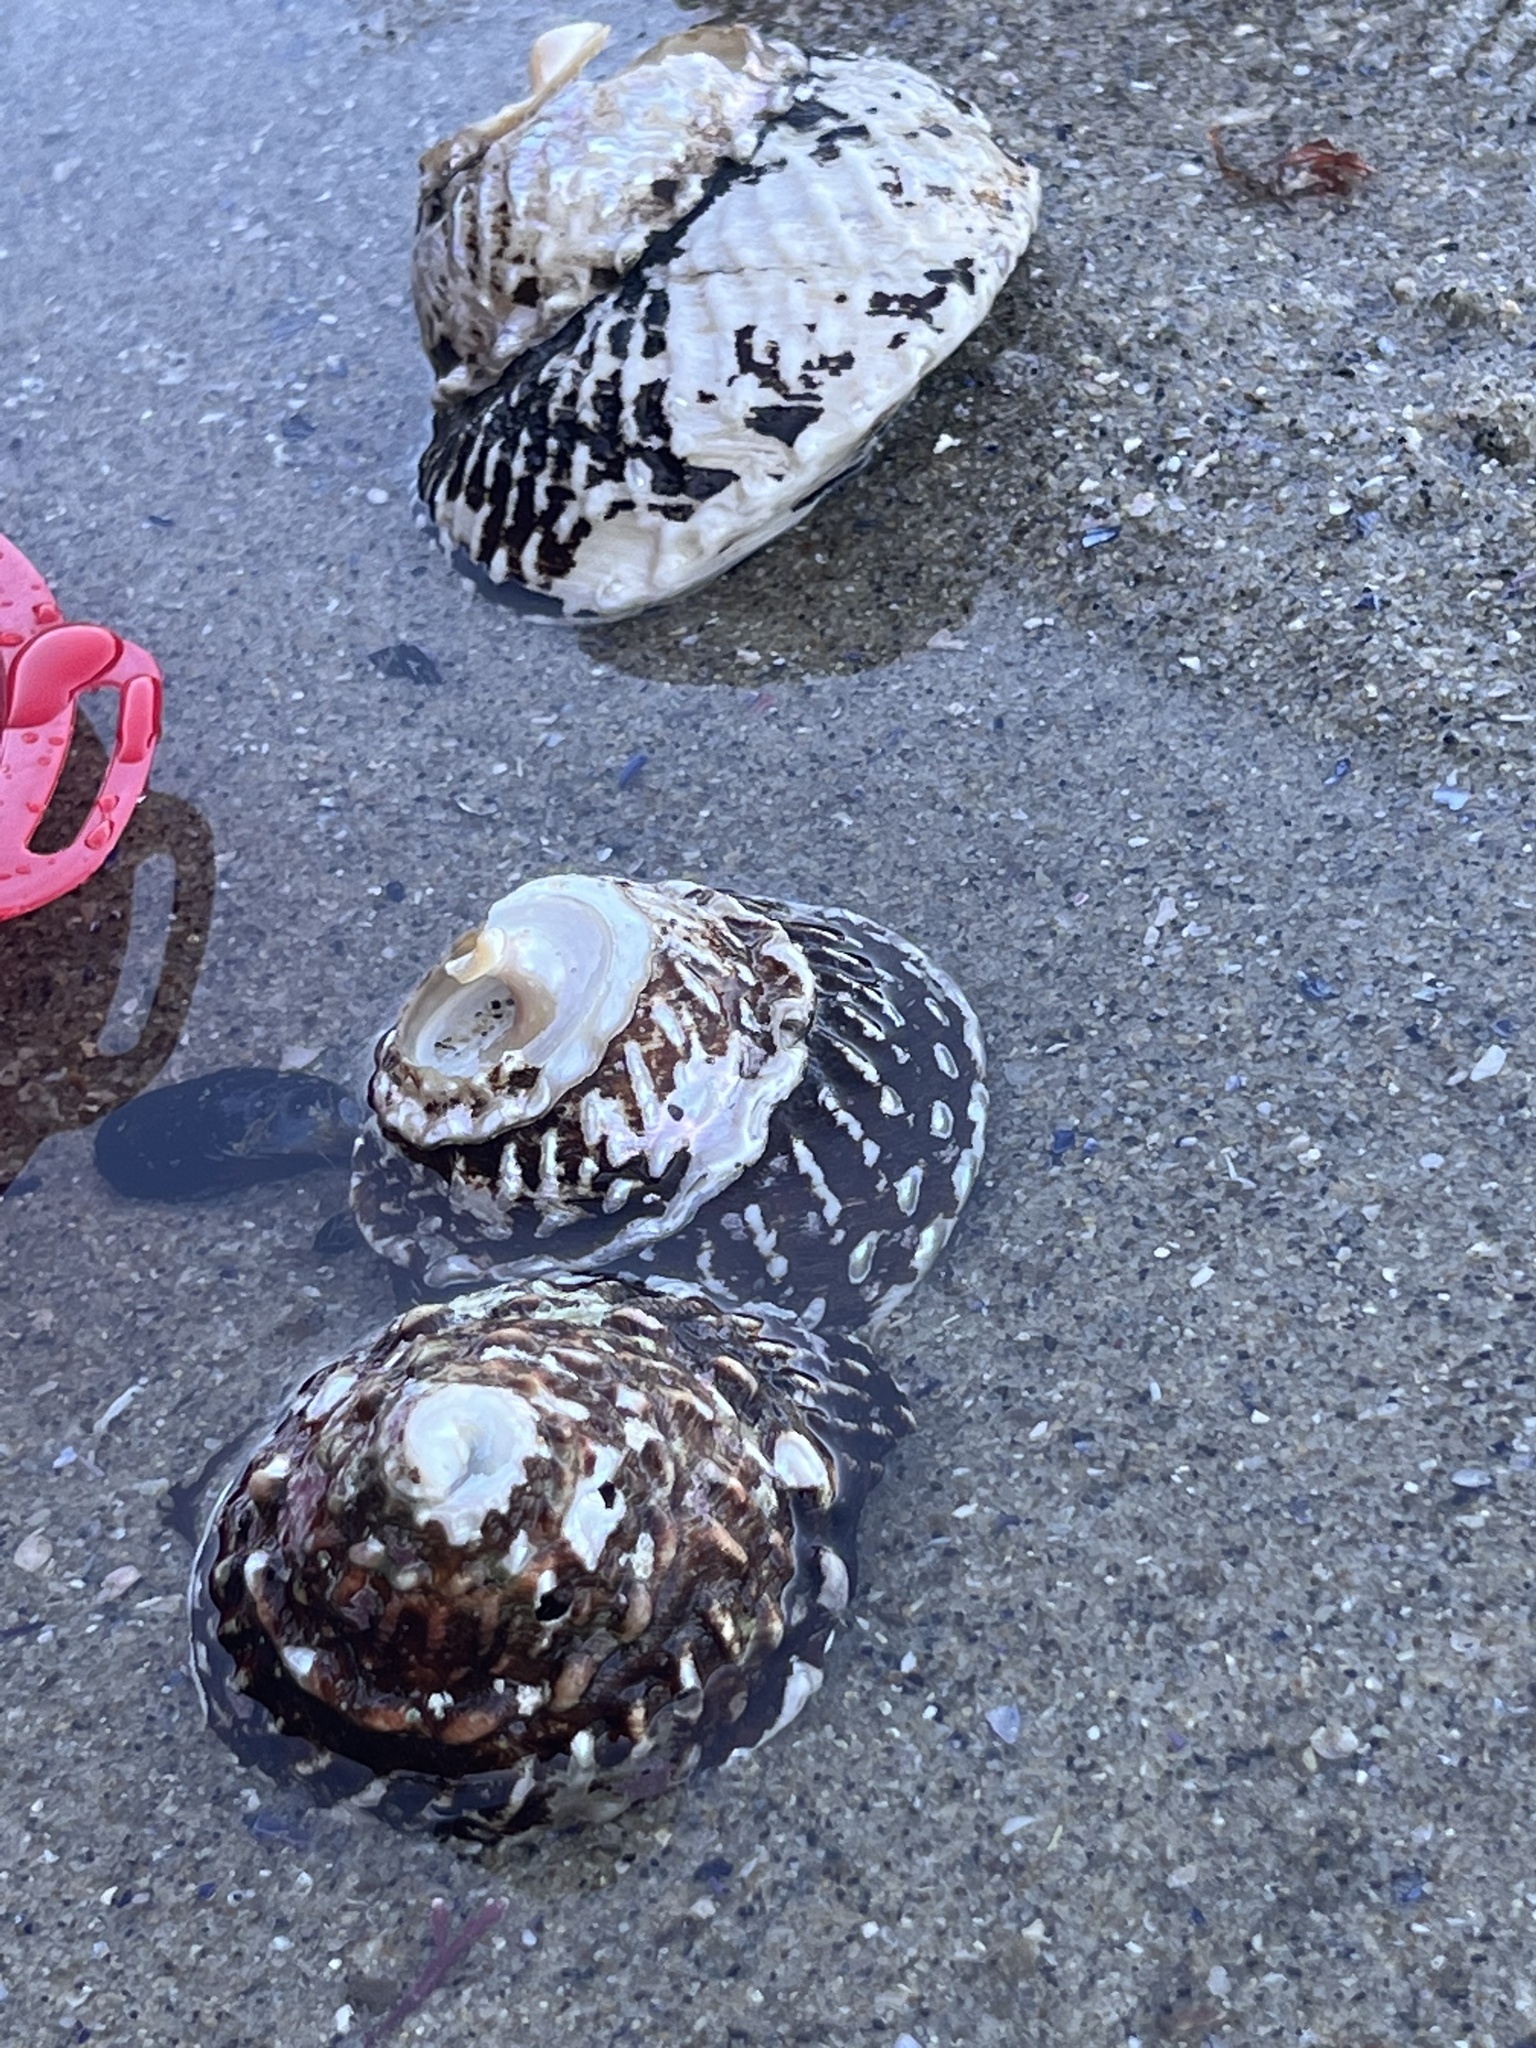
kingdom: Animalia
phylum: Mollusca
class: Gastropoda
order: Trochida
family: Turbinidae
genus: Megastraea
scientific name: Megastraea undosa
